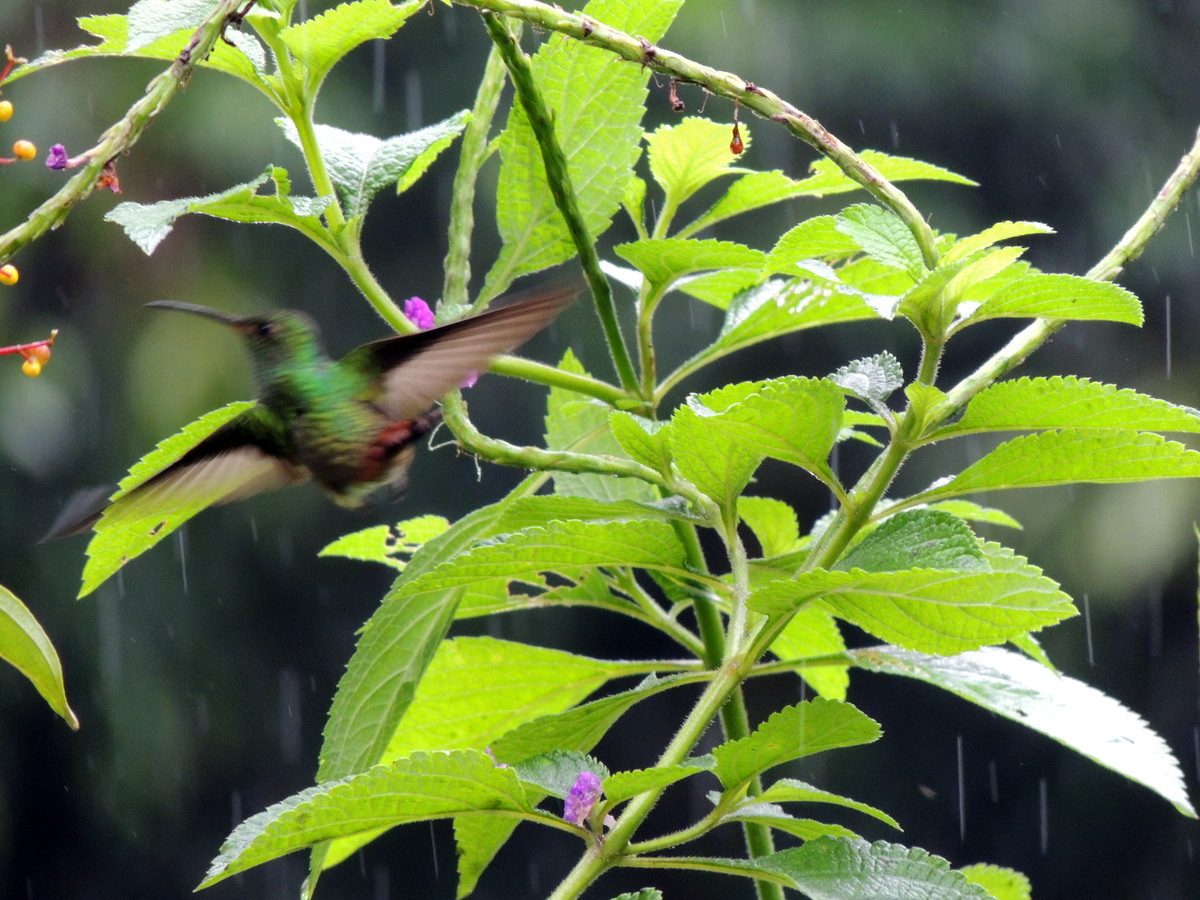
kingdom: Animalia
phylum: Chordata
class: Aves
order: Apodiformes
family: Trochilidae
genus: Amazilia
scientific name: Amazilia tzacatl
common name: Rufous-tailed hummingbird
